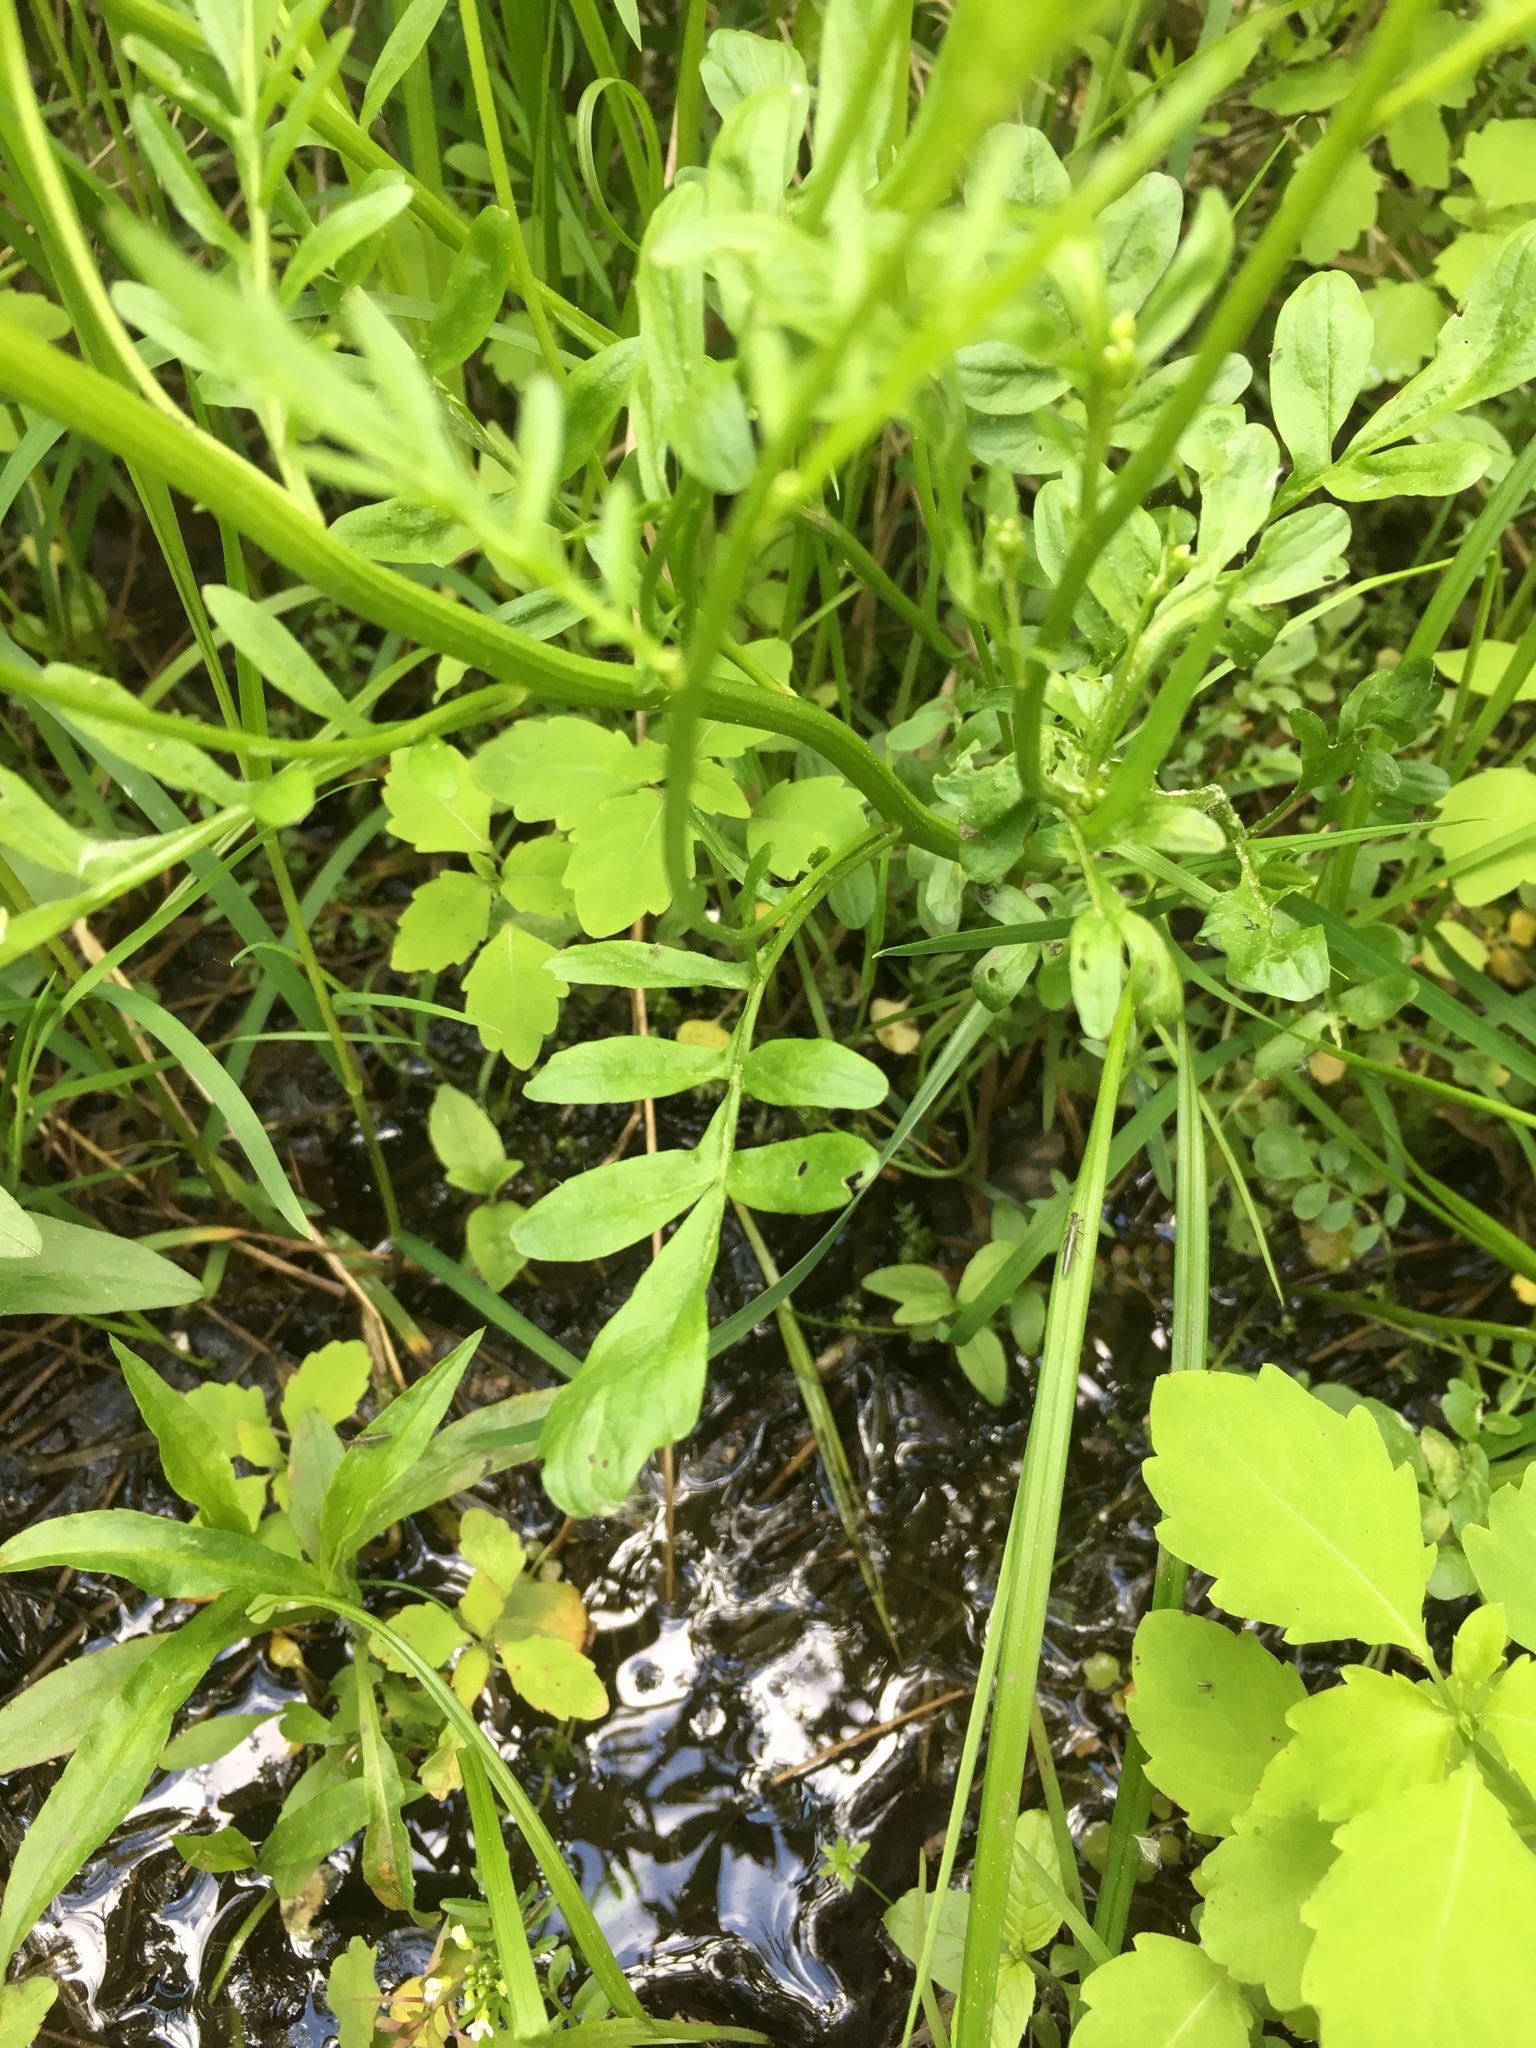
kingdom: Plantae
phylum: Tracheophyta
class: Magnoliopsida
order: Brassicales
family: Brassicaceae
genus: Cardamine
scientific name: Cardamine pensylvanica
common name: Pennsylvania bittercress
